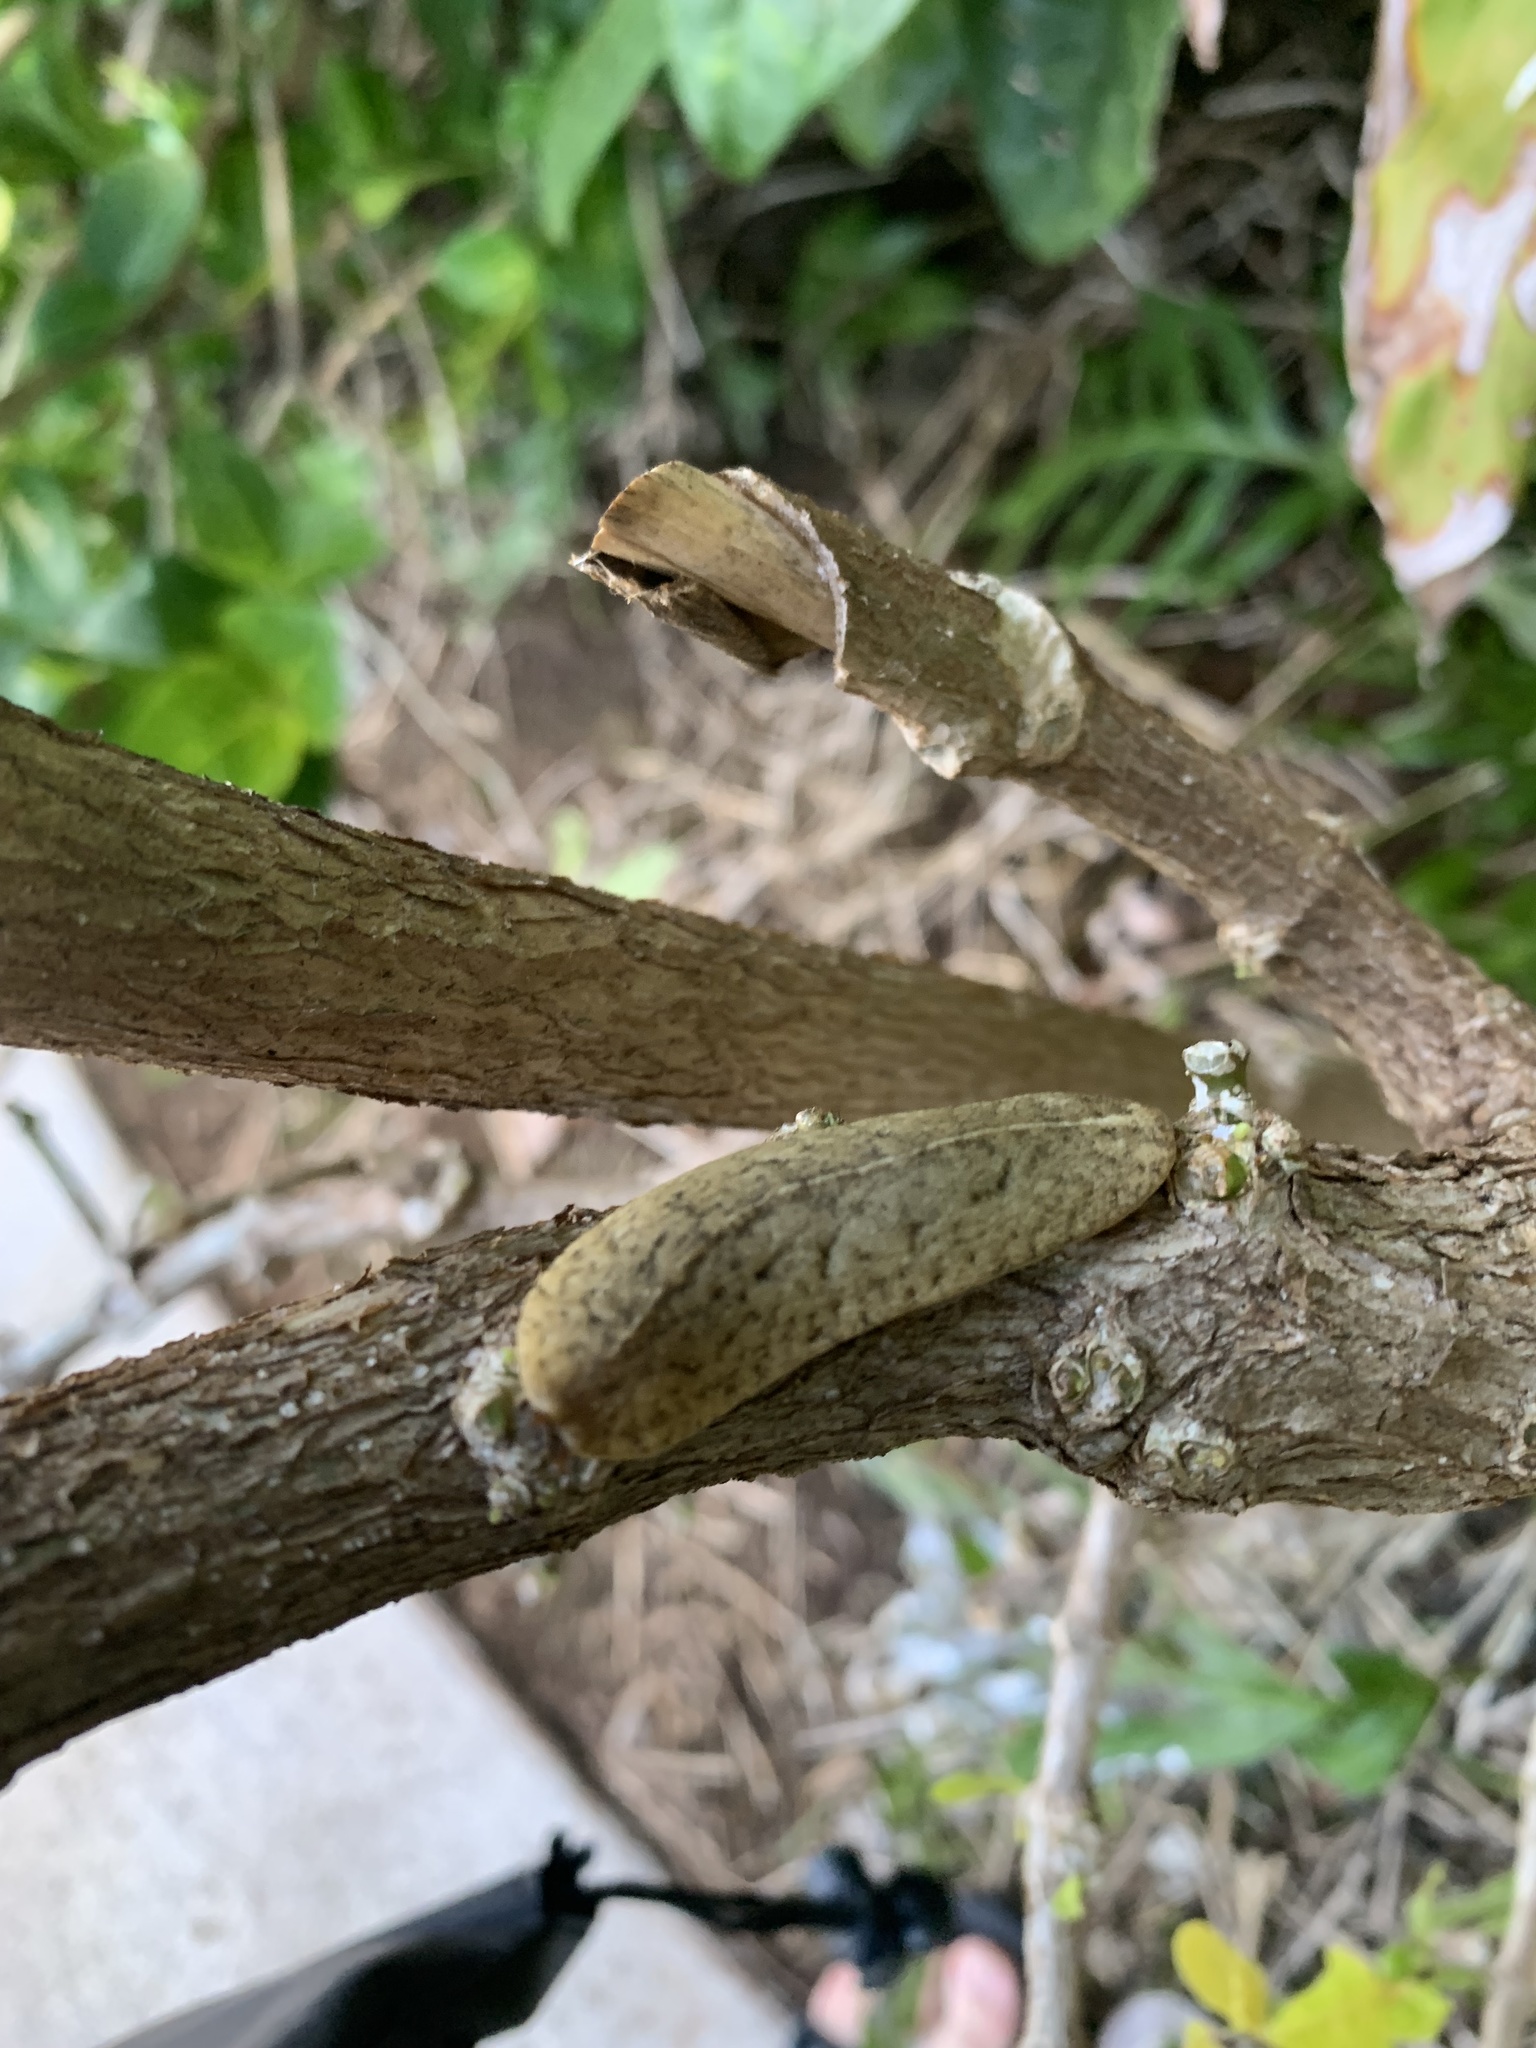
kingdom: Animalia
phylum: Mollusca
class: Gastropoda
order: Systellommatophora
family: Veronicellidae
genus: Veronicella
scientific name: Veronicella cubensis
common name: Two striped slug
